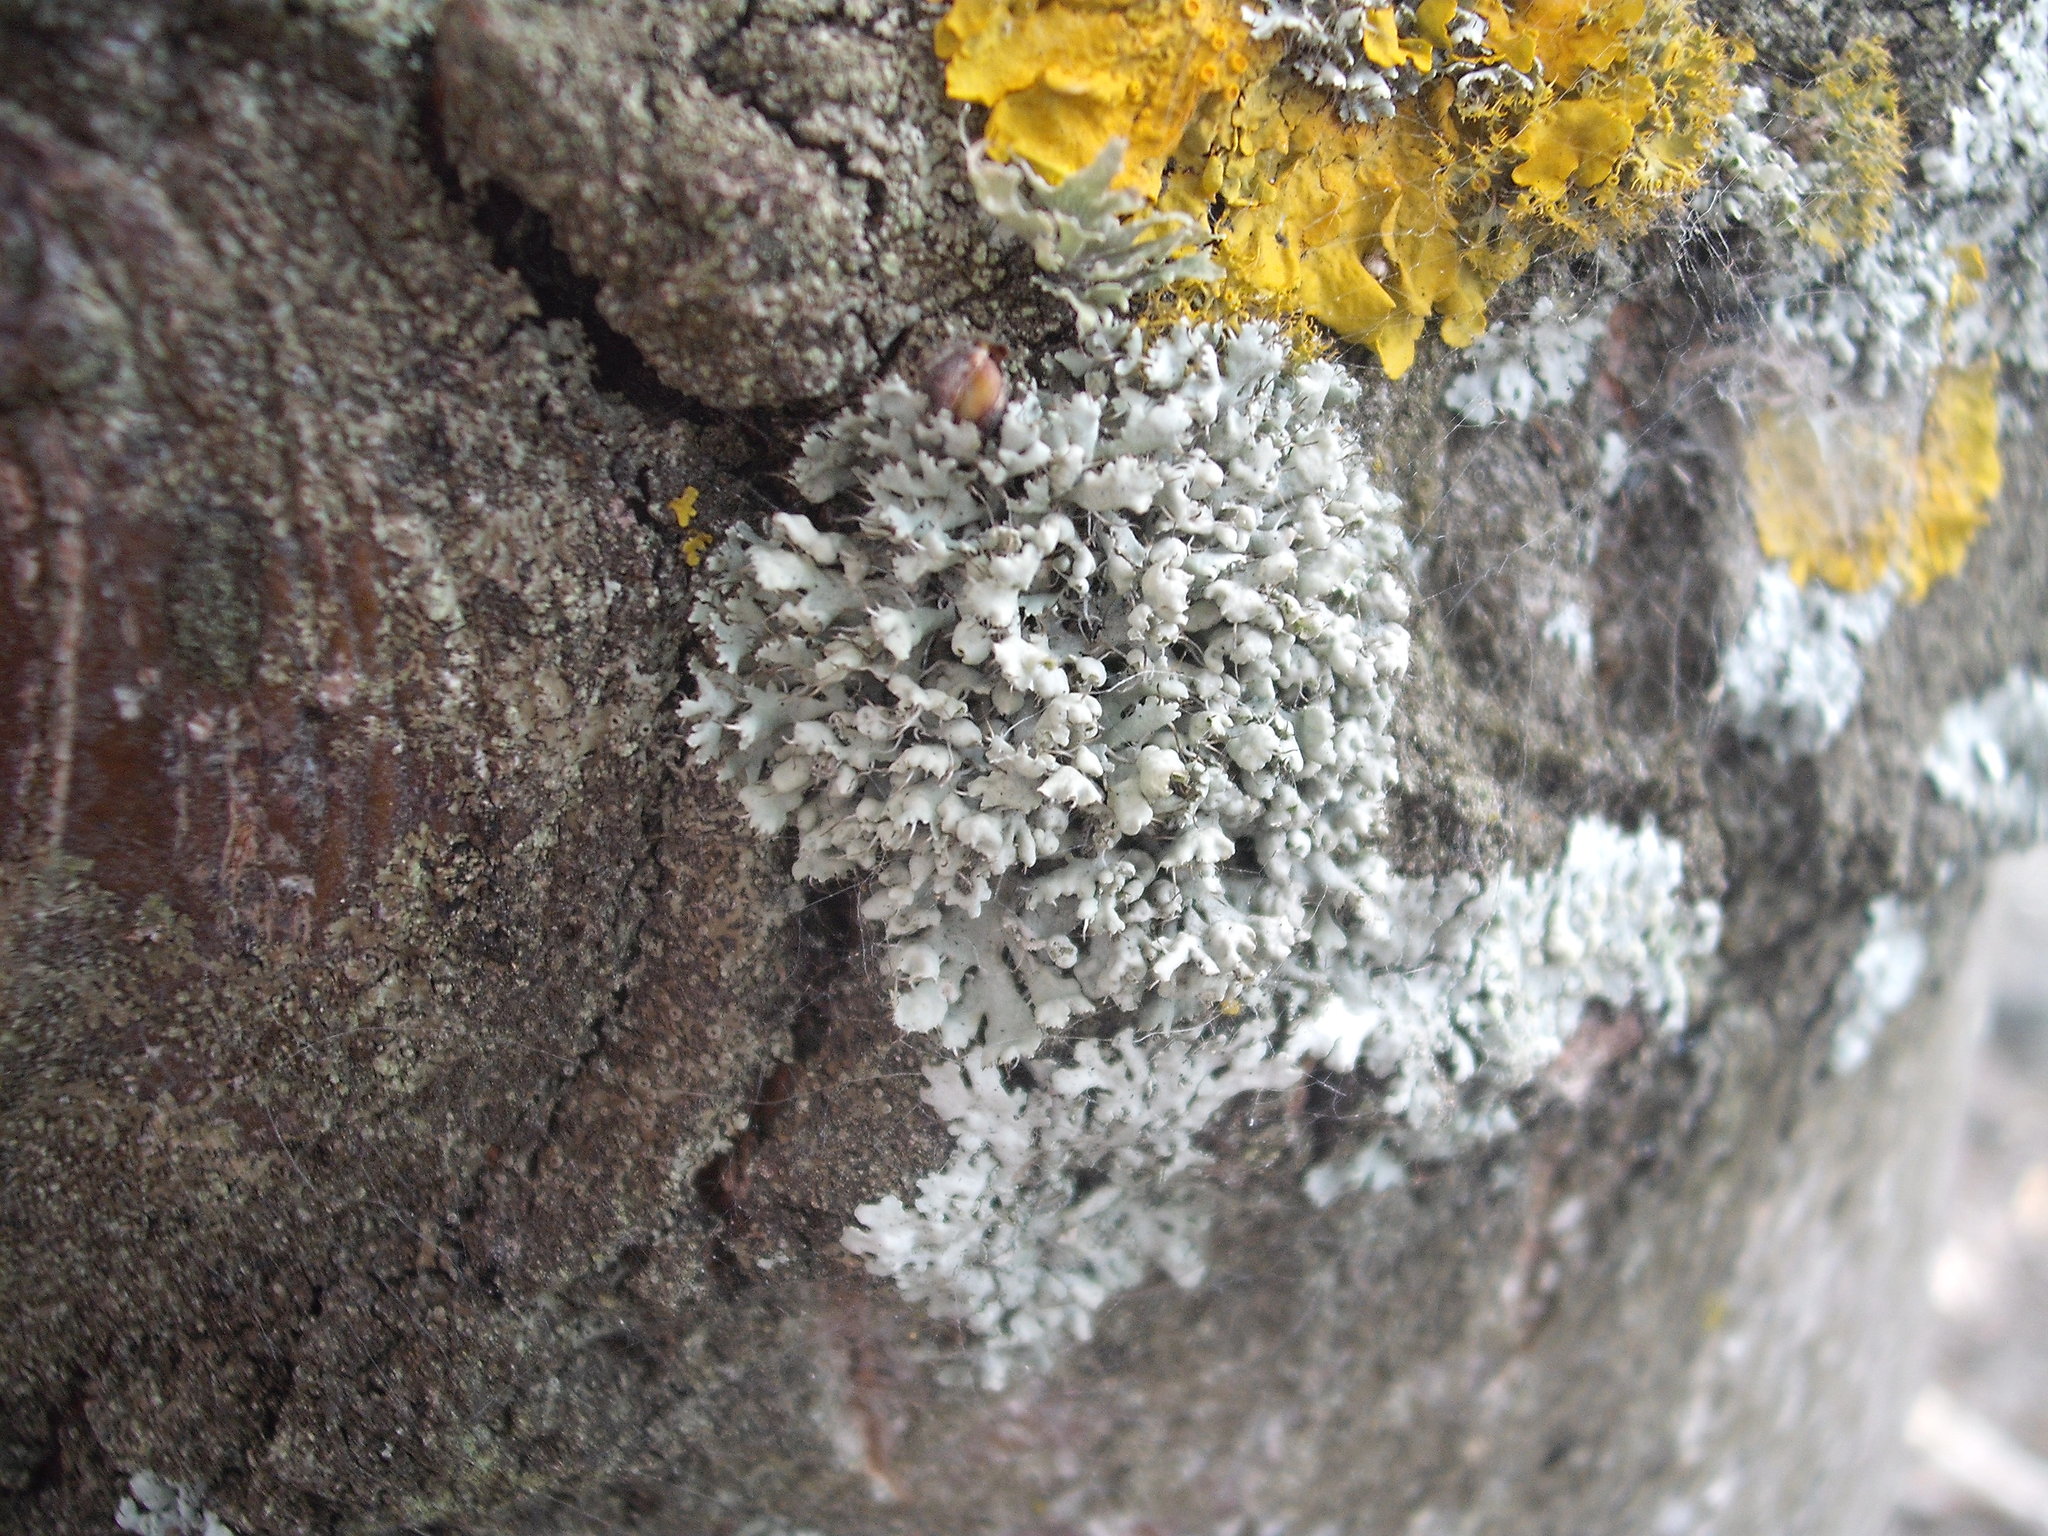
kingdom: Fungi
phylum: Ascomycota
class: Lecanoromycetes
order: Caliciales
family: Physciaceae
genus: Physcia
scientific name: Physcia adscendens
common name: Hooded rosette lichen
